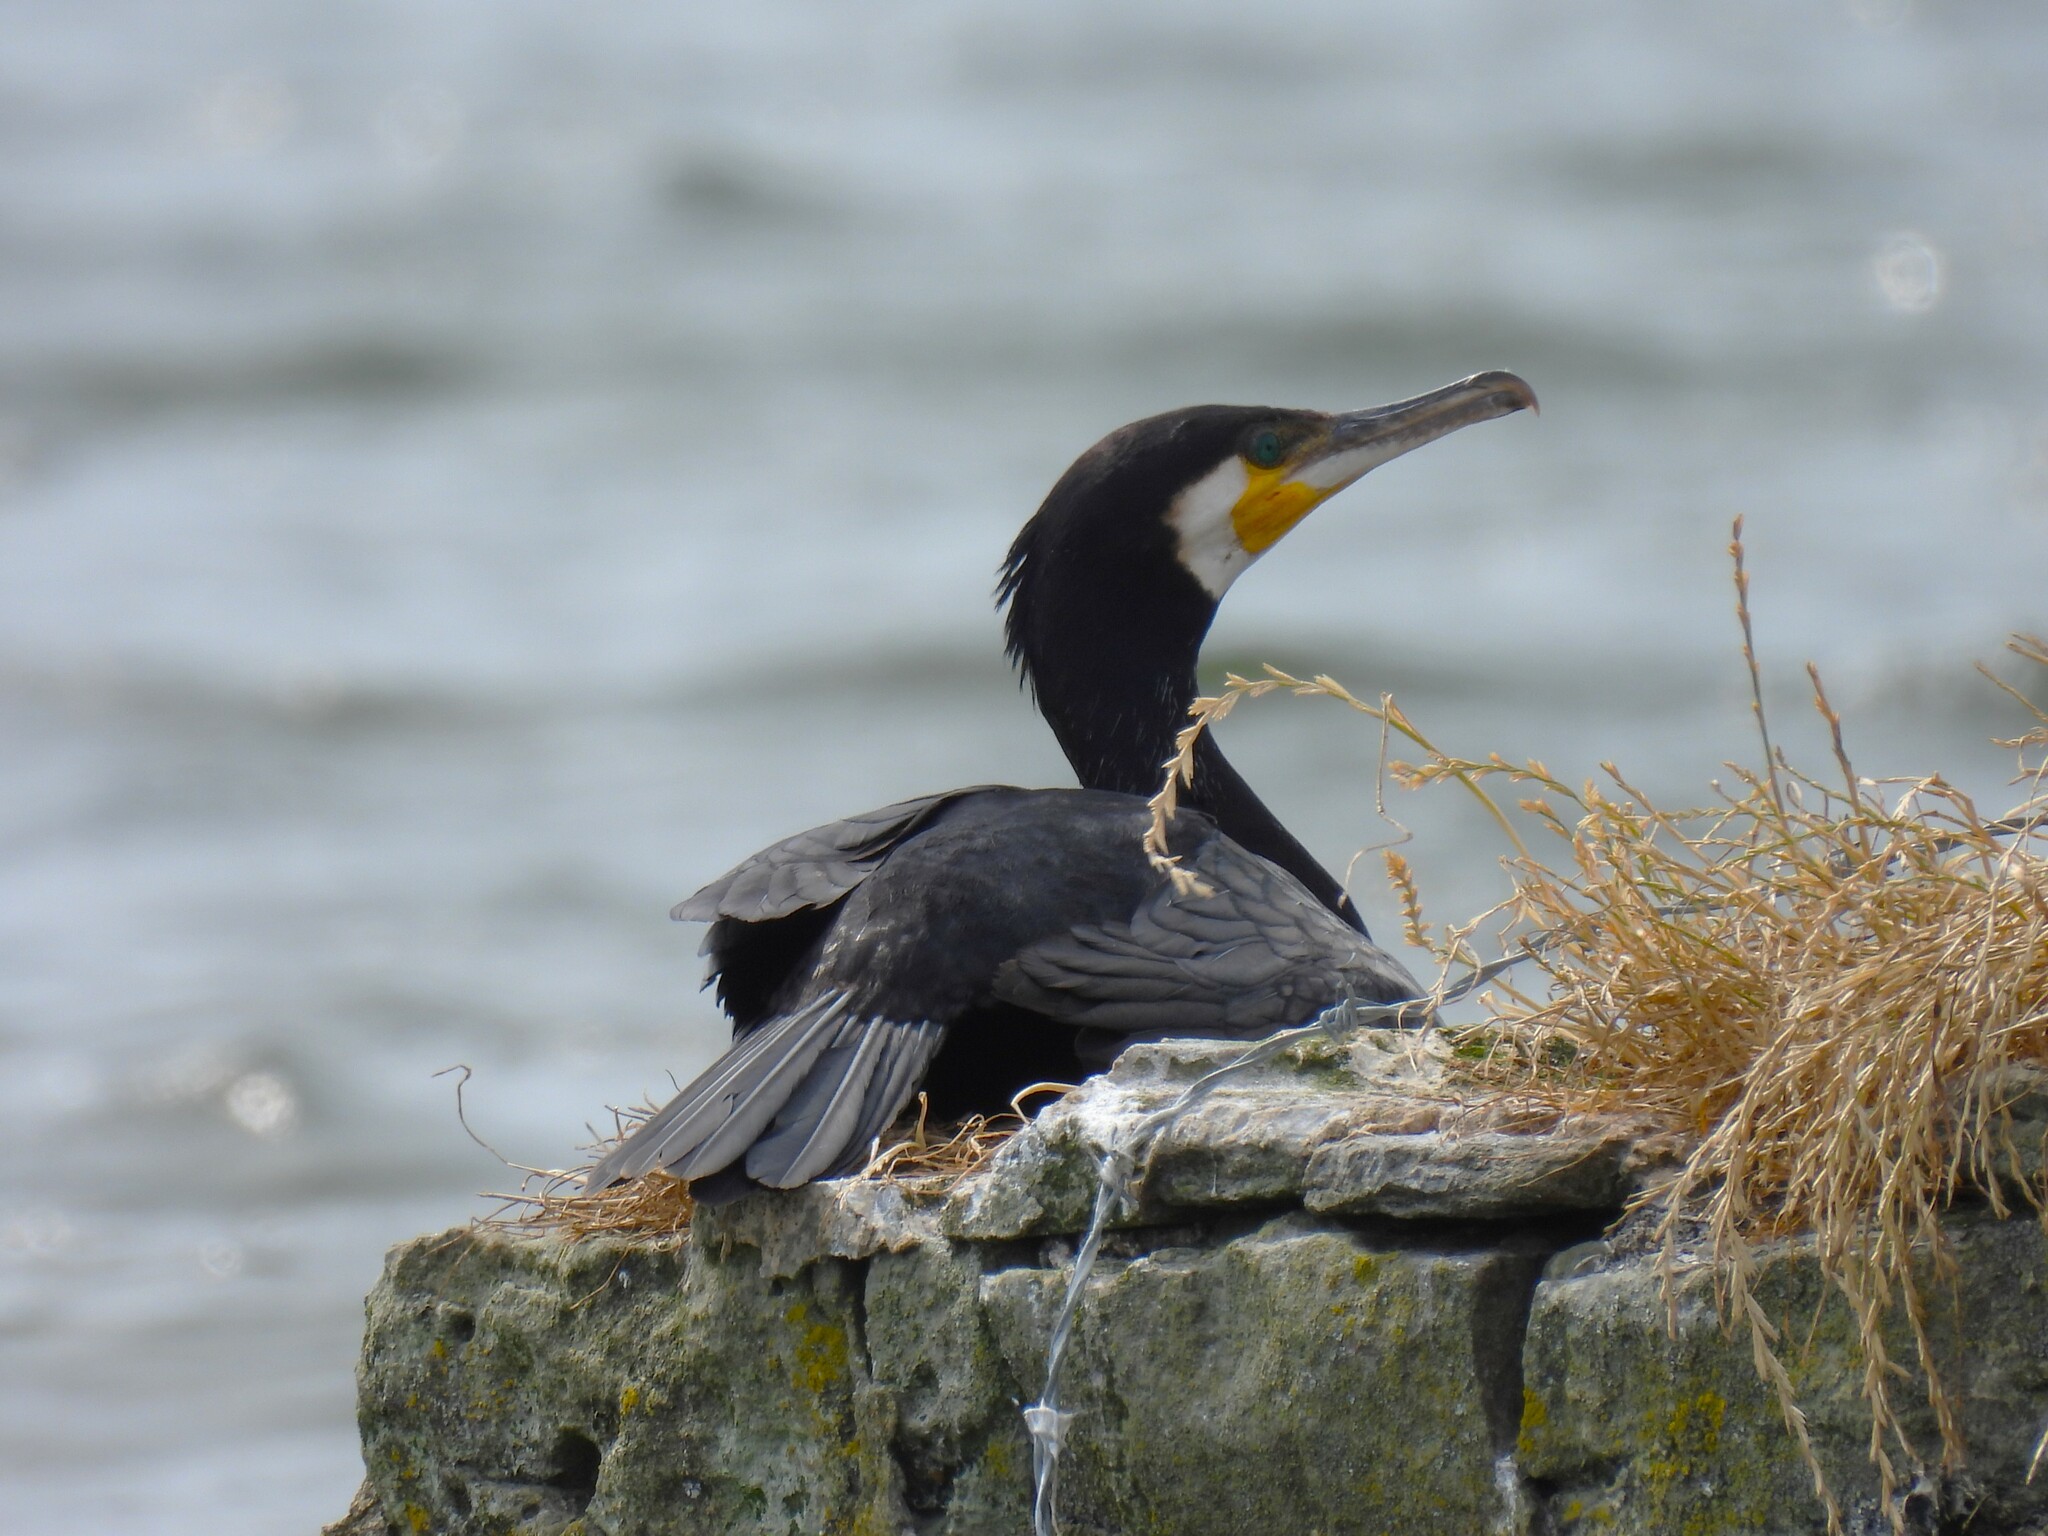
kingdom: Animalia
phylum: Chordata
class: Aves
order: Suliformes
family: Phalacrocoracidae
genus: Phalacrocorax
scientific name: Phalacrocorax carbo
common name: Great cormorant
